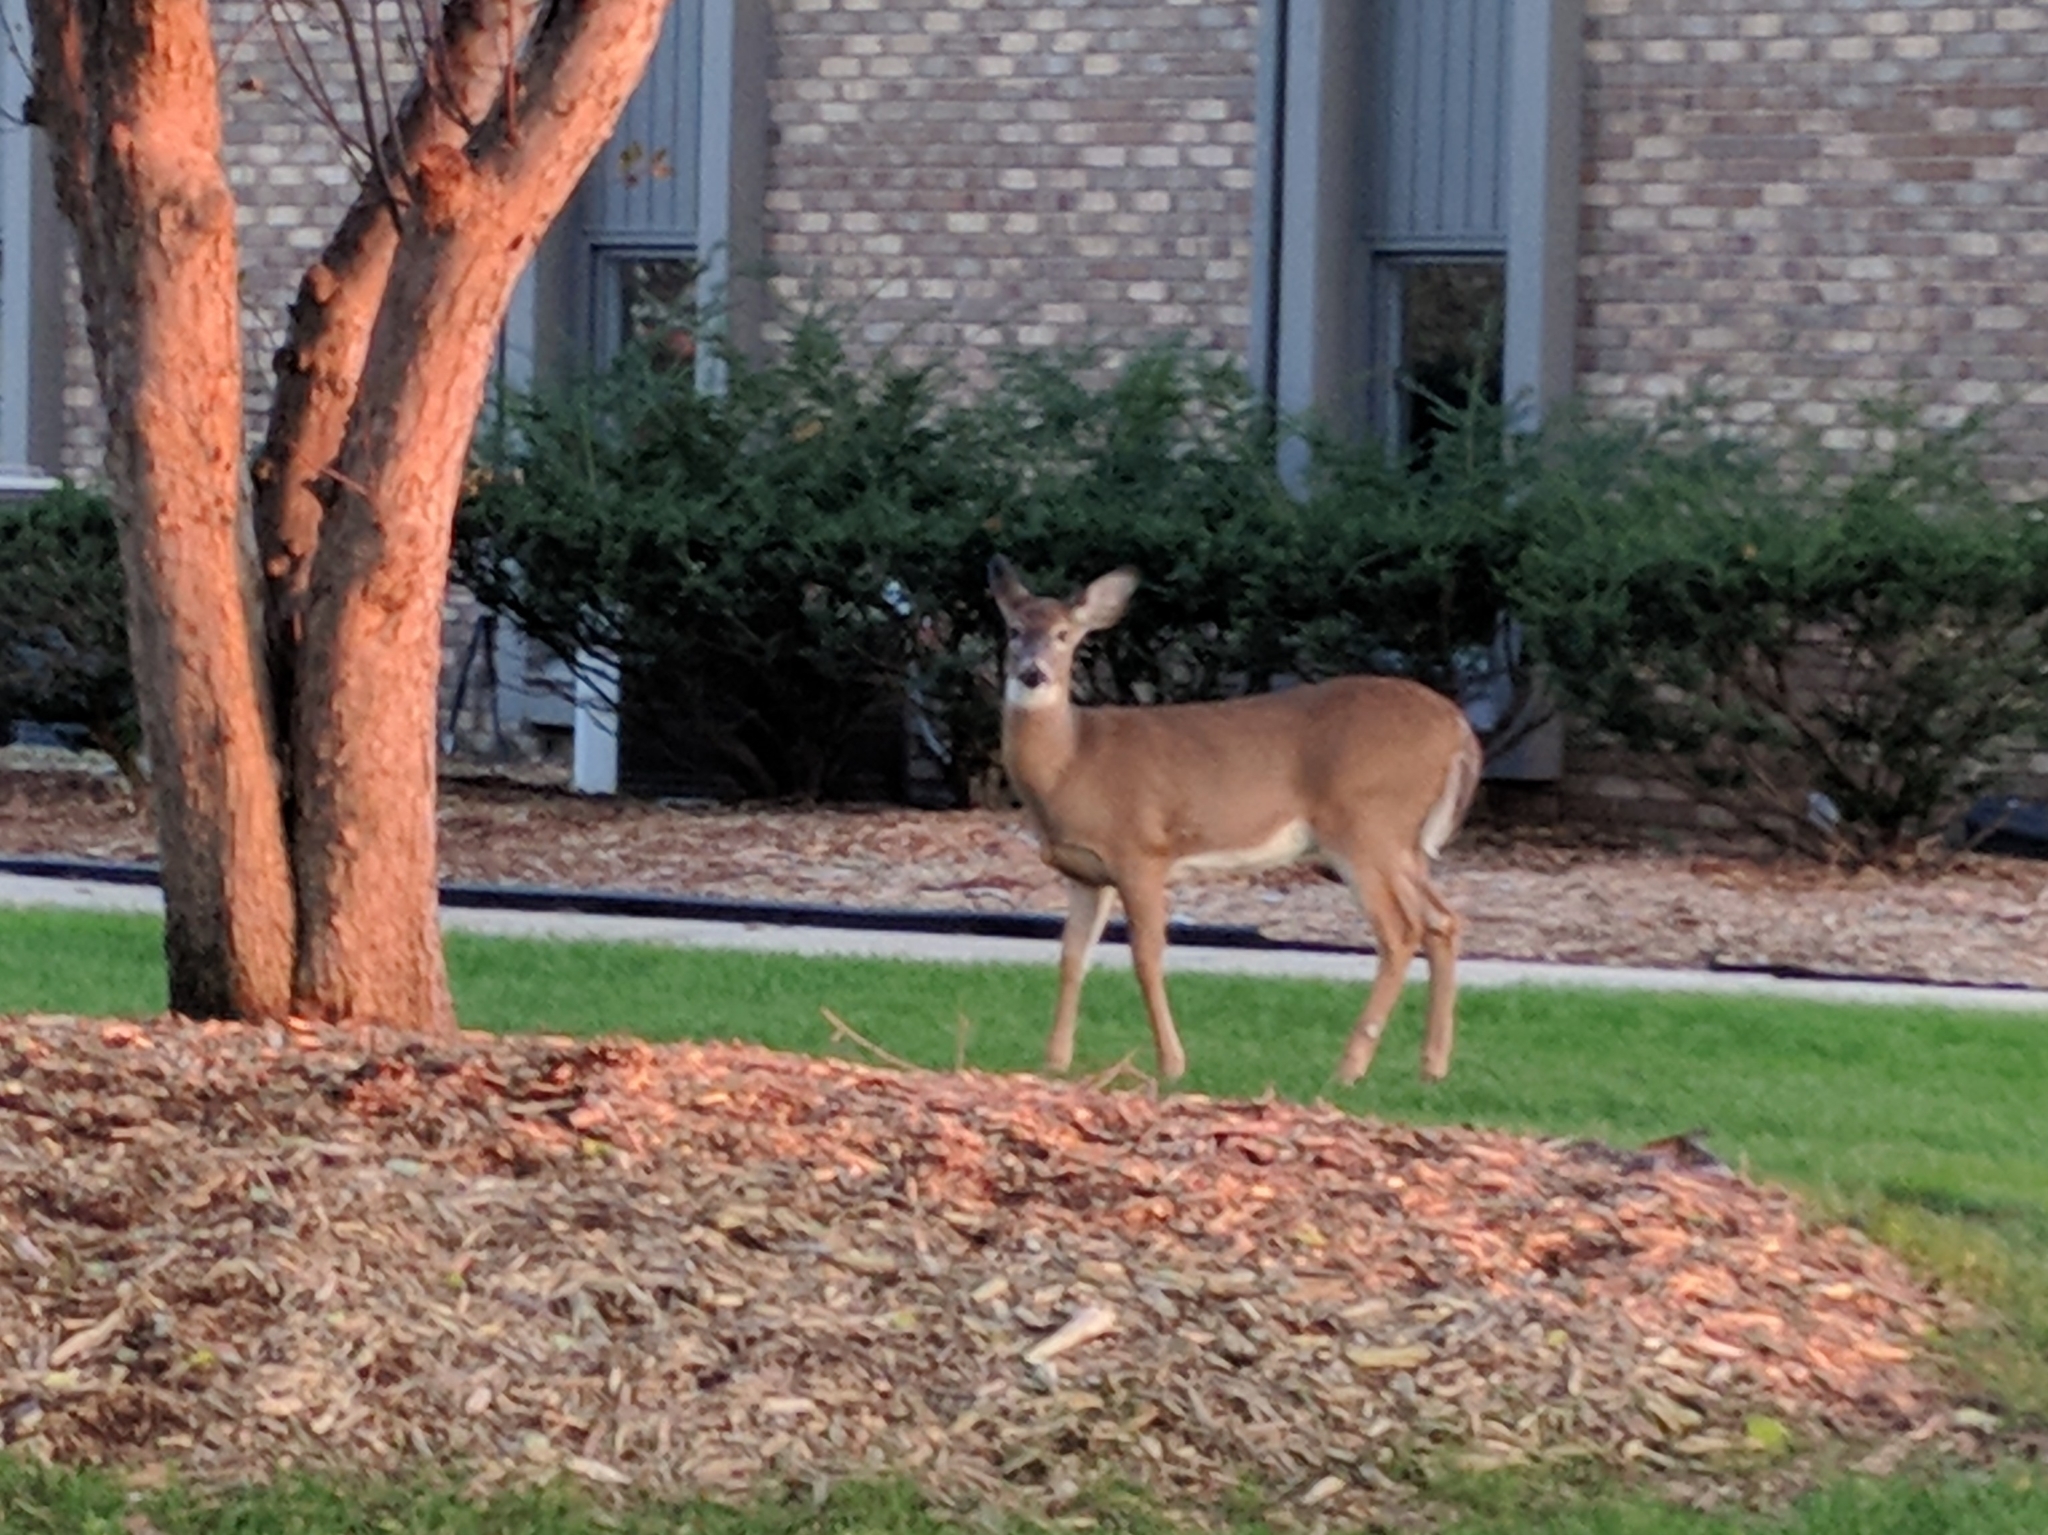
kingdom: Animalia
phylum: Chordata
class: Mammalia
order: Artiodactyla
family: Cervidae
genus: Odocoileus
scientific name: Odocoileus virginianus
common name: White-tailed deer
